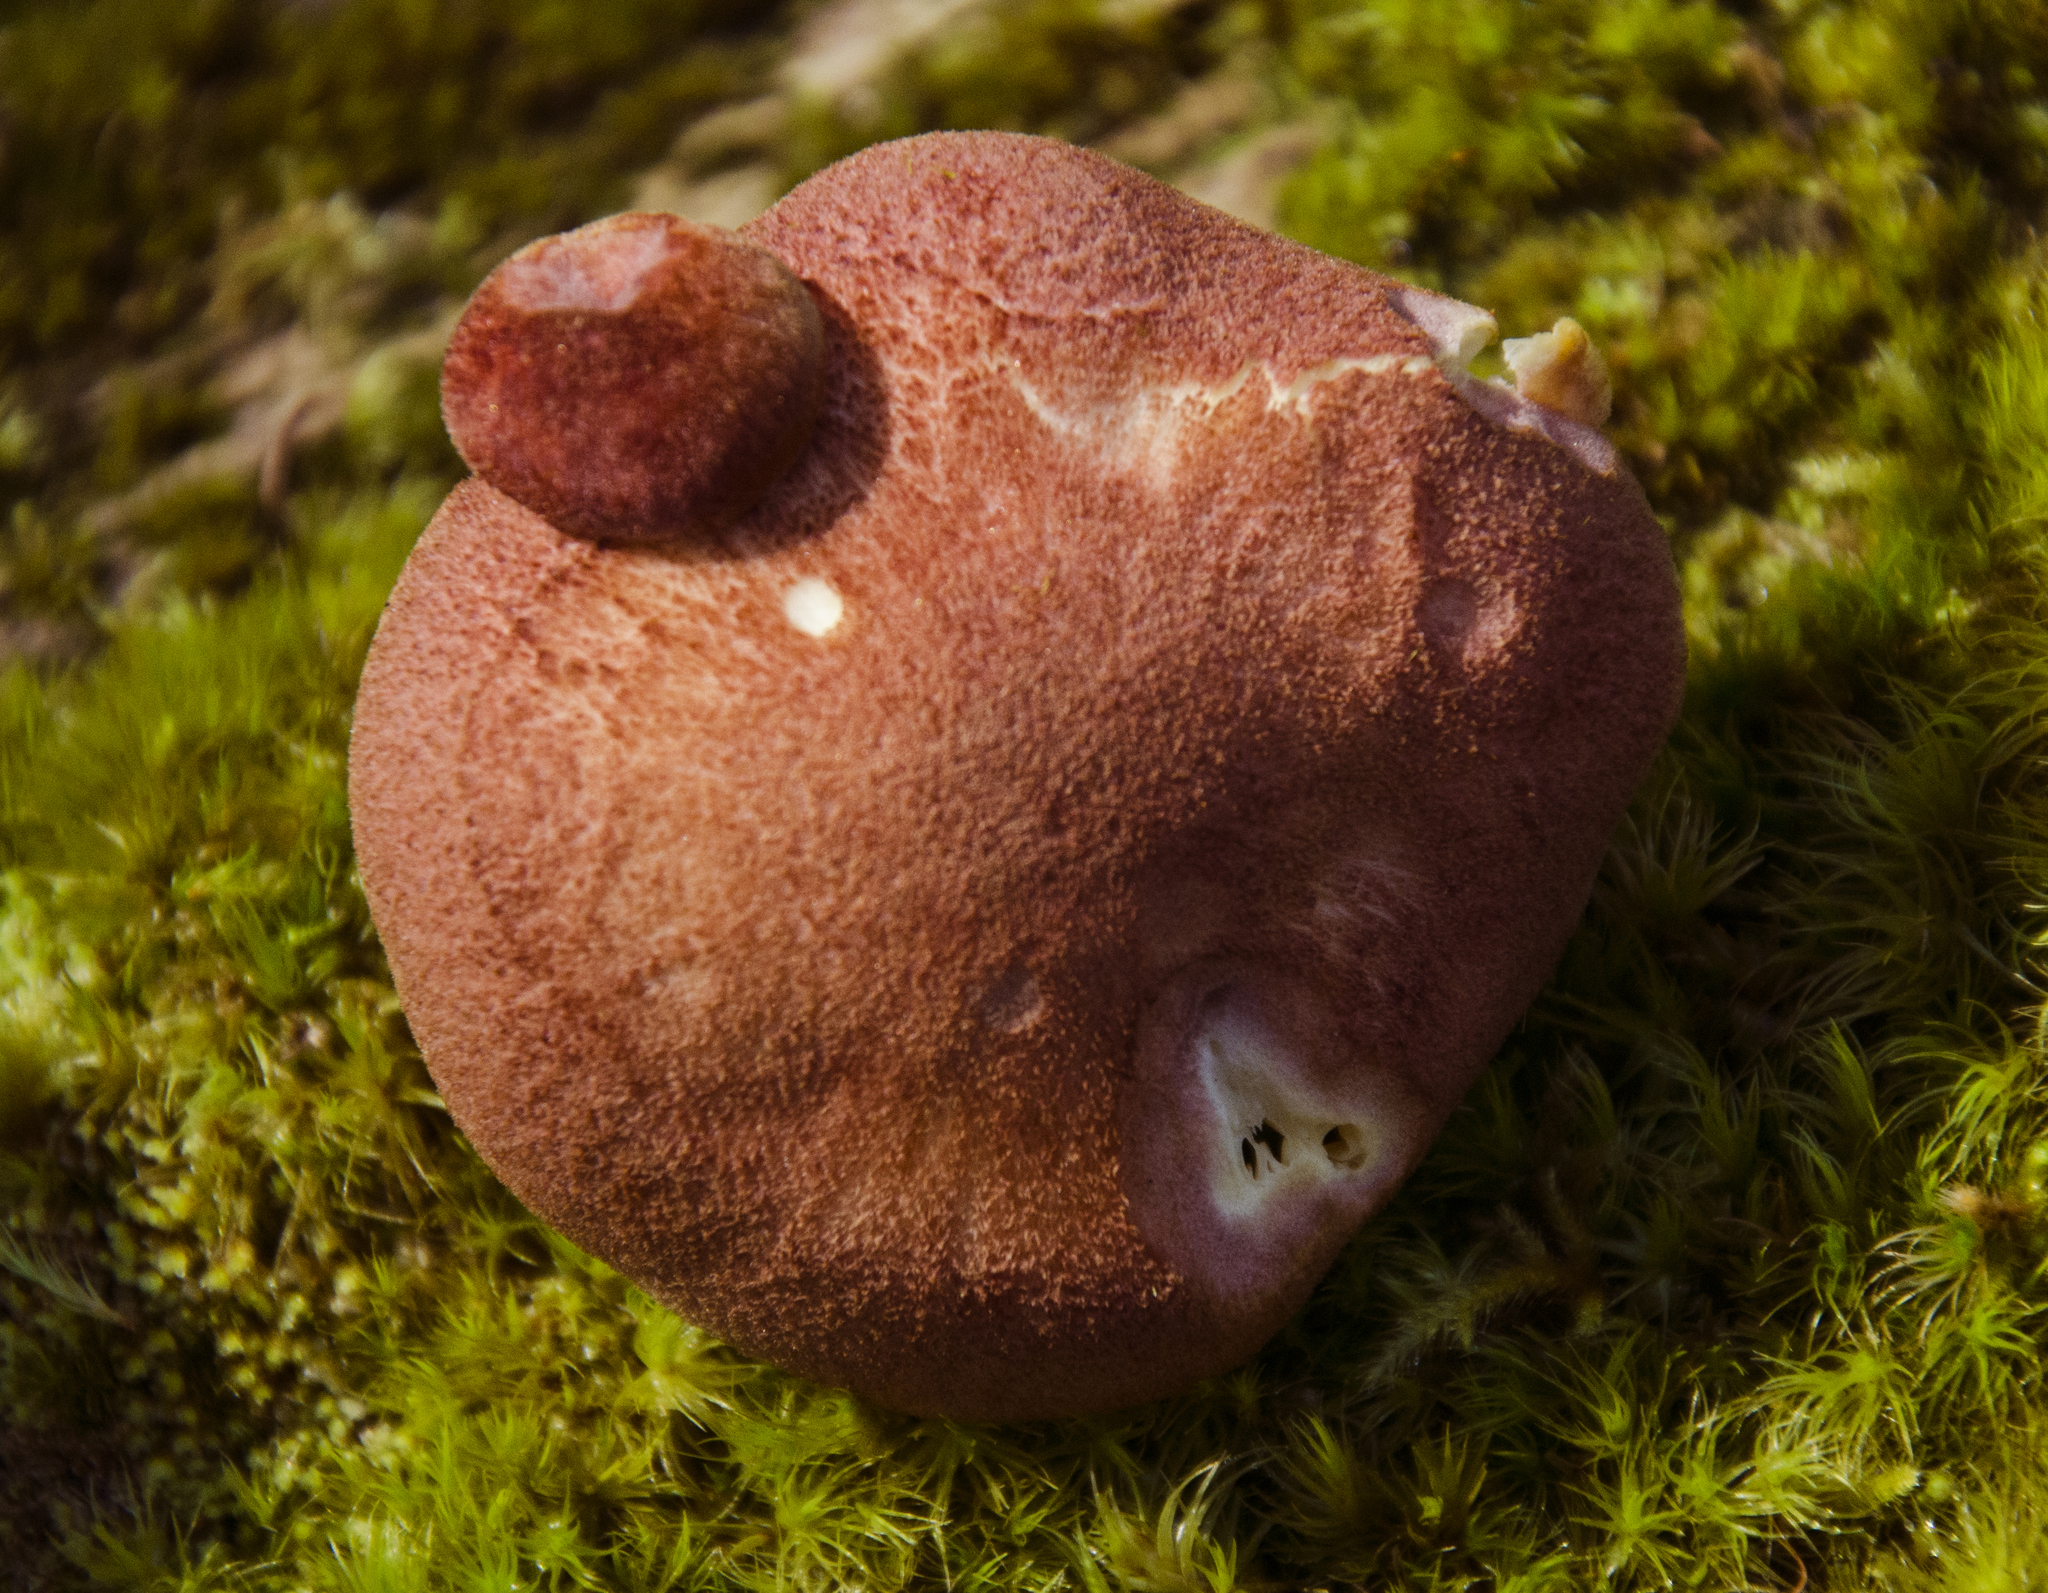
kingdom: Fungi
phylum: Basidiomycota
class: Agaricomycetes
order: Agaricales
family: Tricholomataceae
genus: Tricholomopsis
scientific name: Tricholomopsis rutilans
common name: Plums and custard
